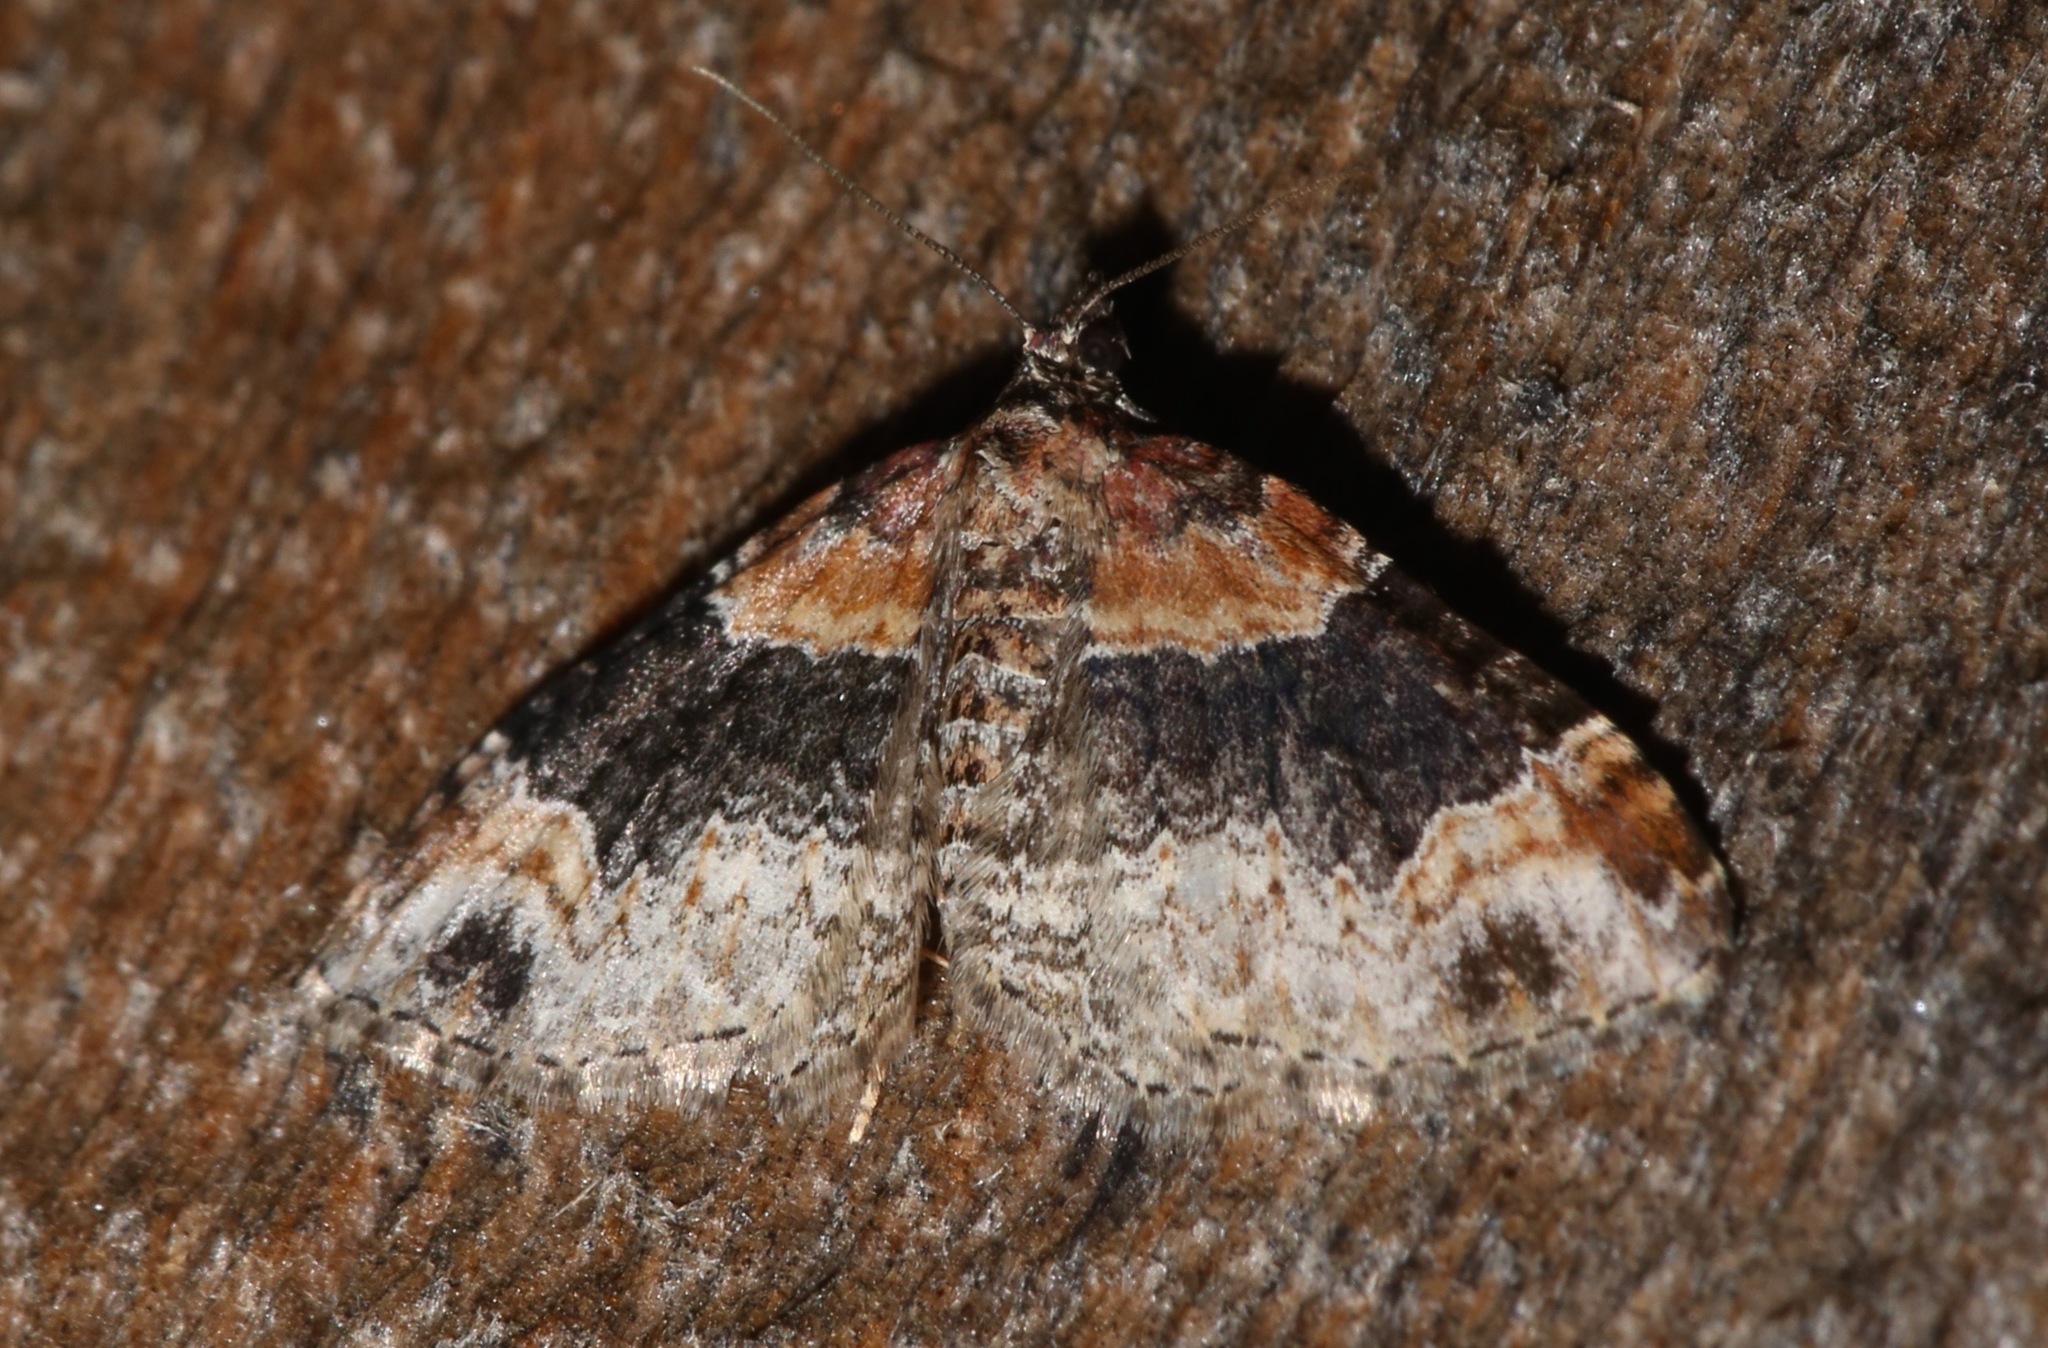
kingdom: Animalia
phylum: Arthropoda
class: Insecta
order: Lepidoptera
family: Geometridae
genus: Xanthorhoe
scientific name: Xanthorhoe ferrugata
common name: Dark-barred twin-spot carpet
